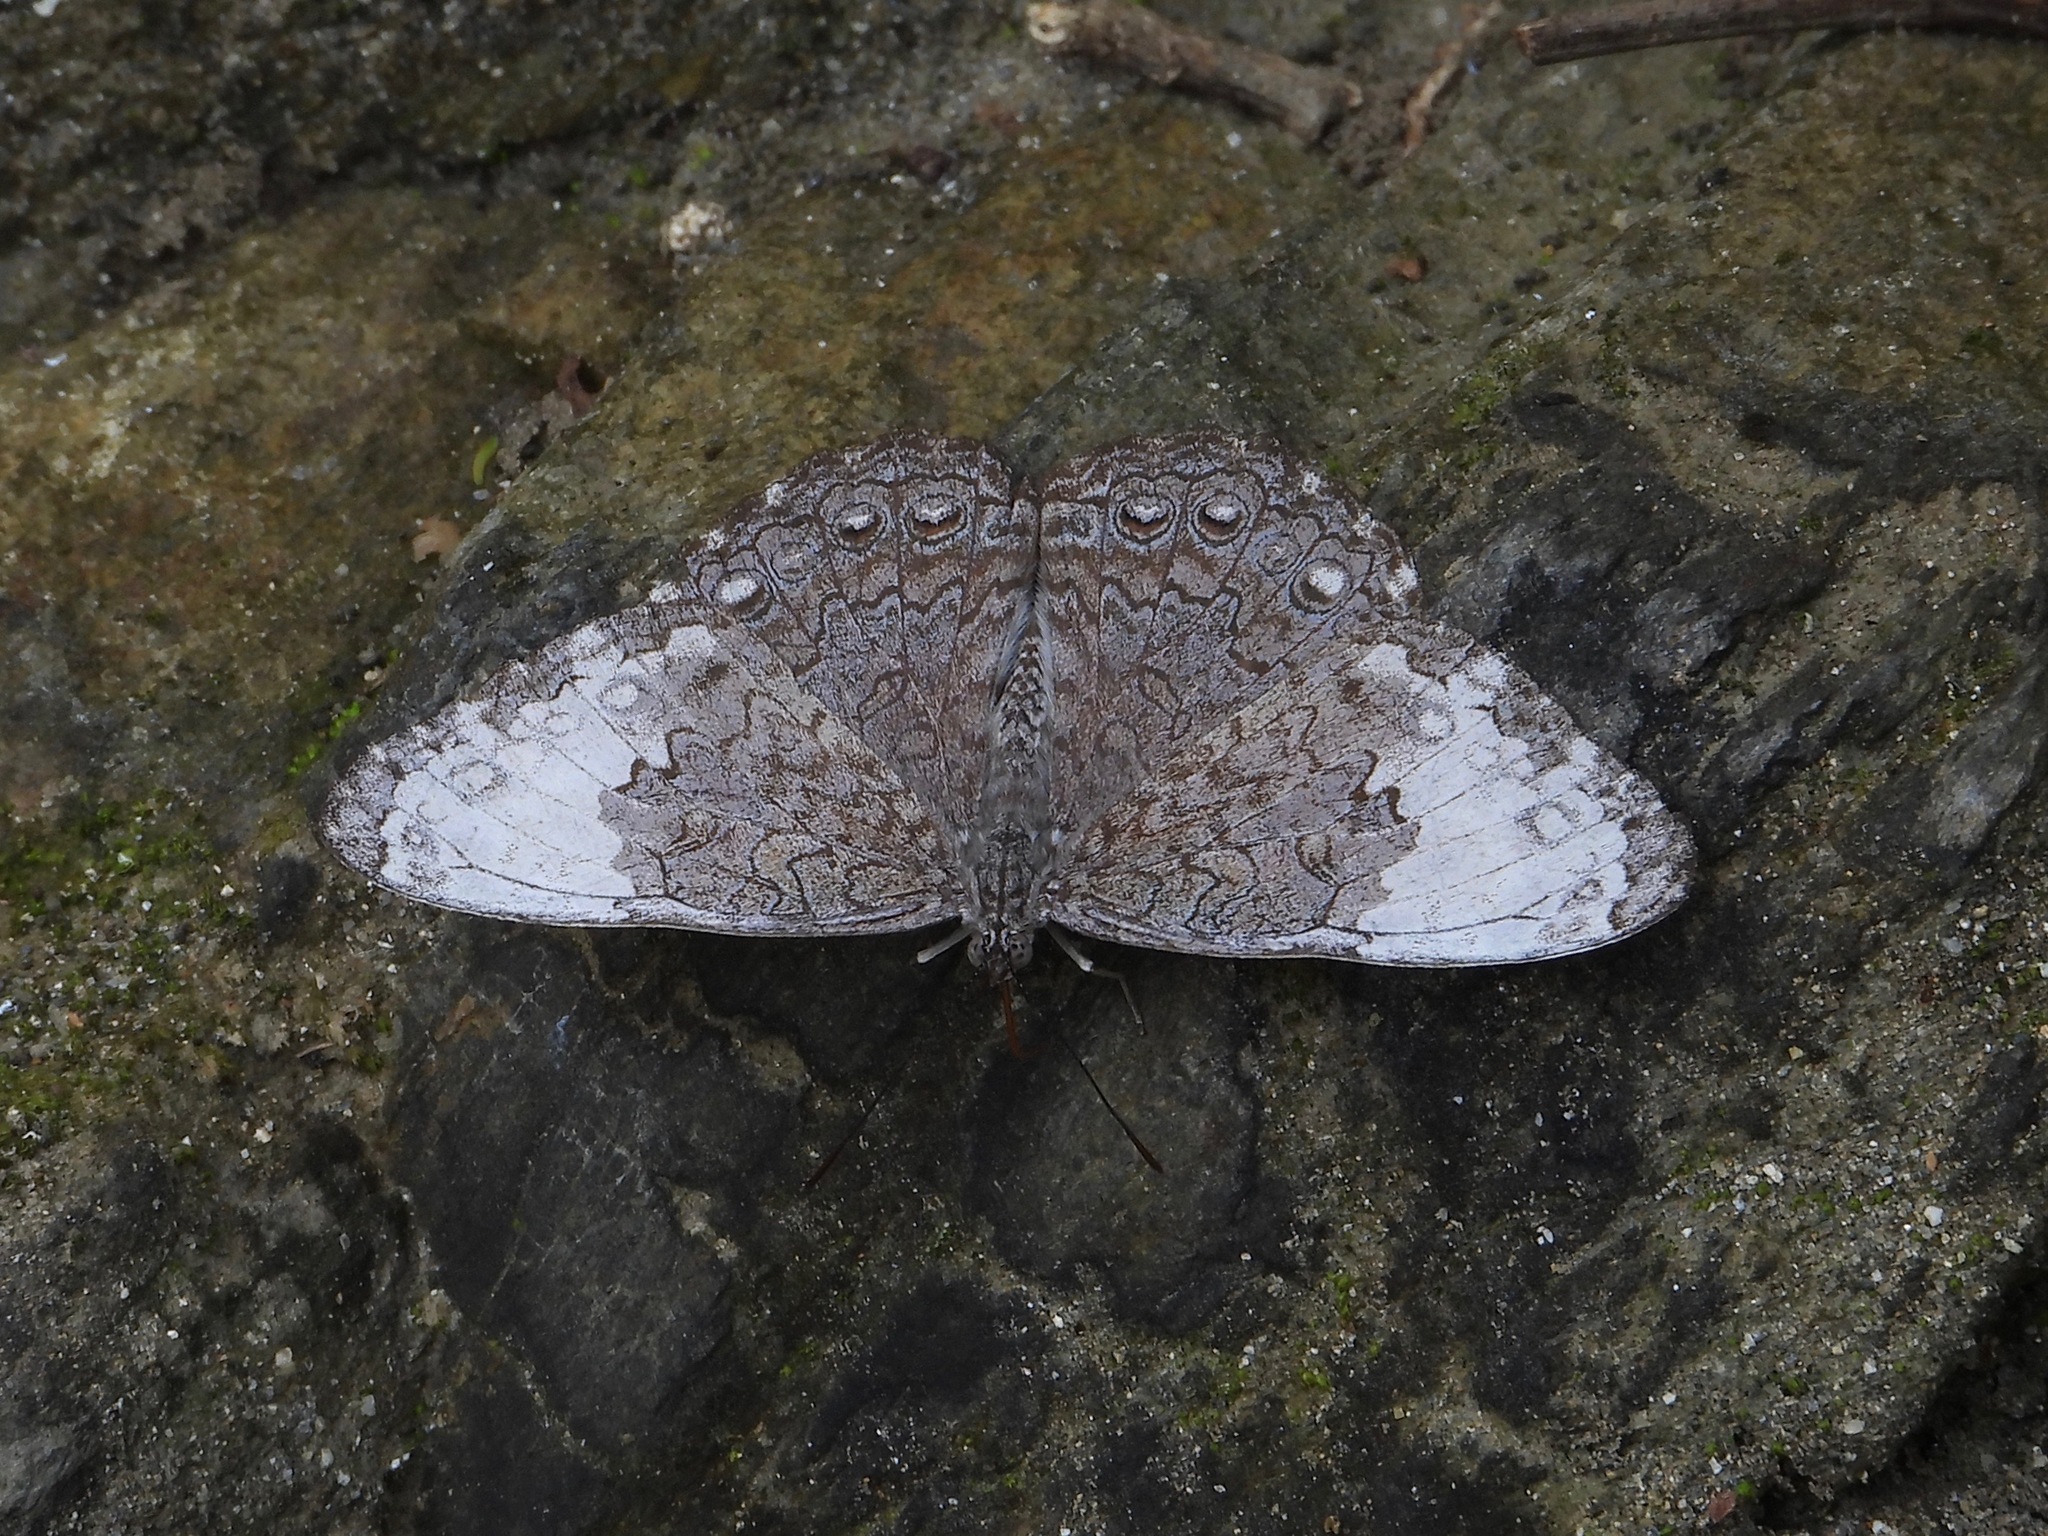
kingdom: Animalia
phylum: Arthropoda
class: Insecta
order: Lepidoptera
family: Nymphalidae
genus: Hamadryas
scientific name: Hamadryas glauconome
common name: Glaucous cracker
